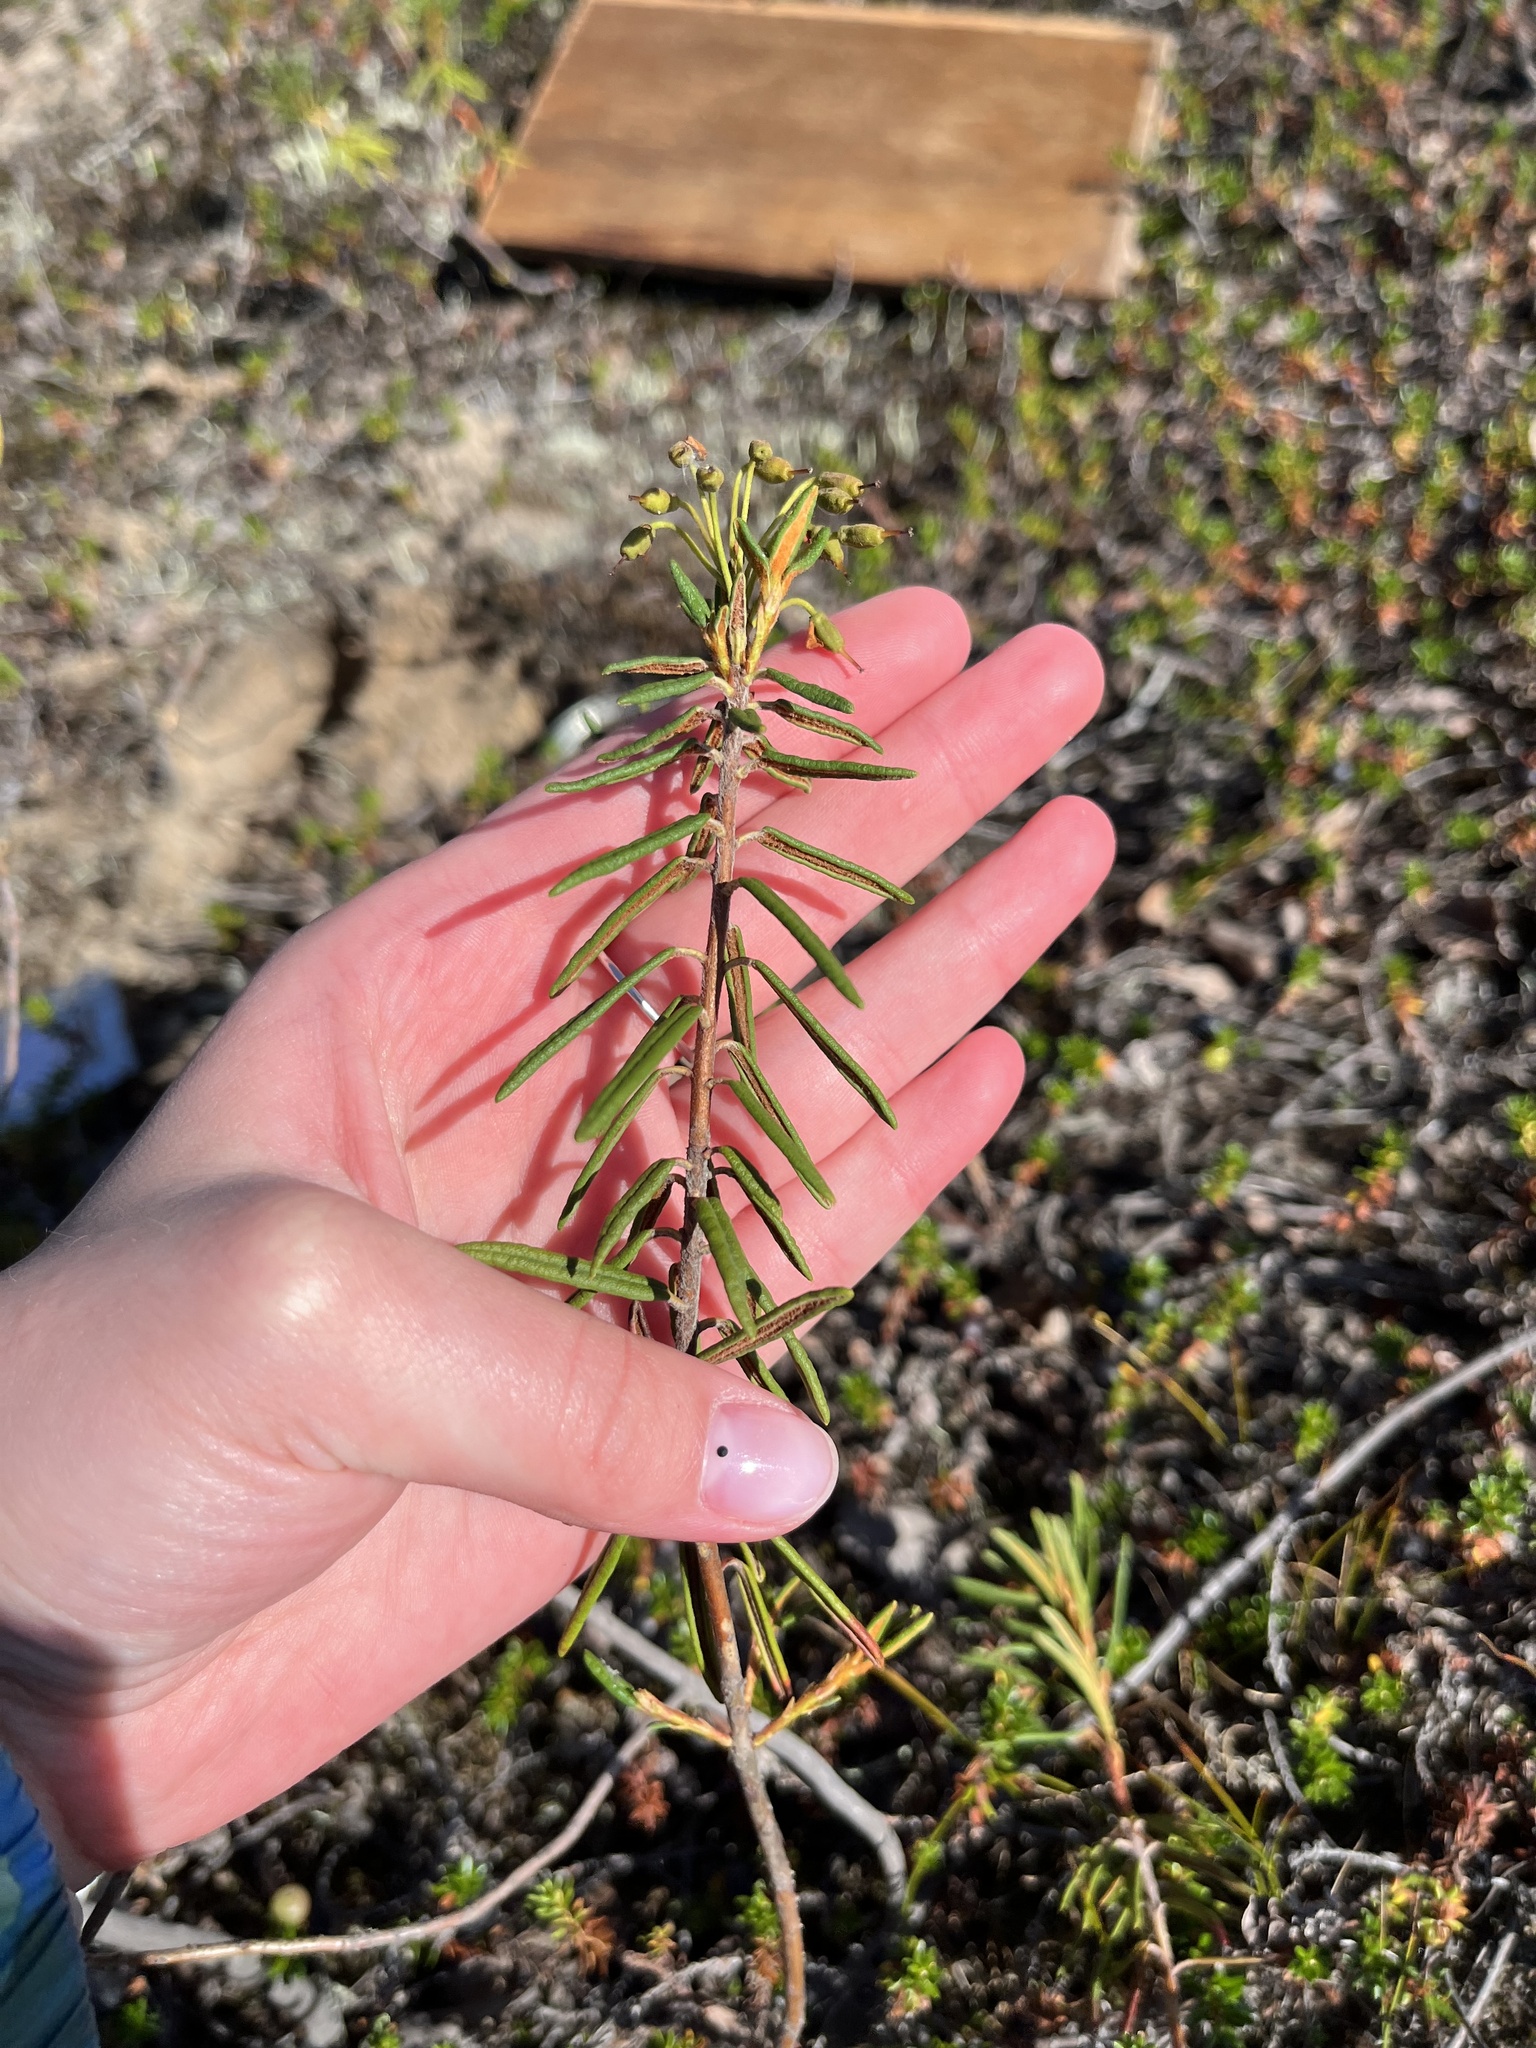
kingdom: Plantae
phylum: Tracheophyta
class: Magnoliopsida
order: Ericales
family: Ericaceae
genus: Rhododendron
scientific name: Rhododendron tomentosum
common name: Marsh labrador tea
